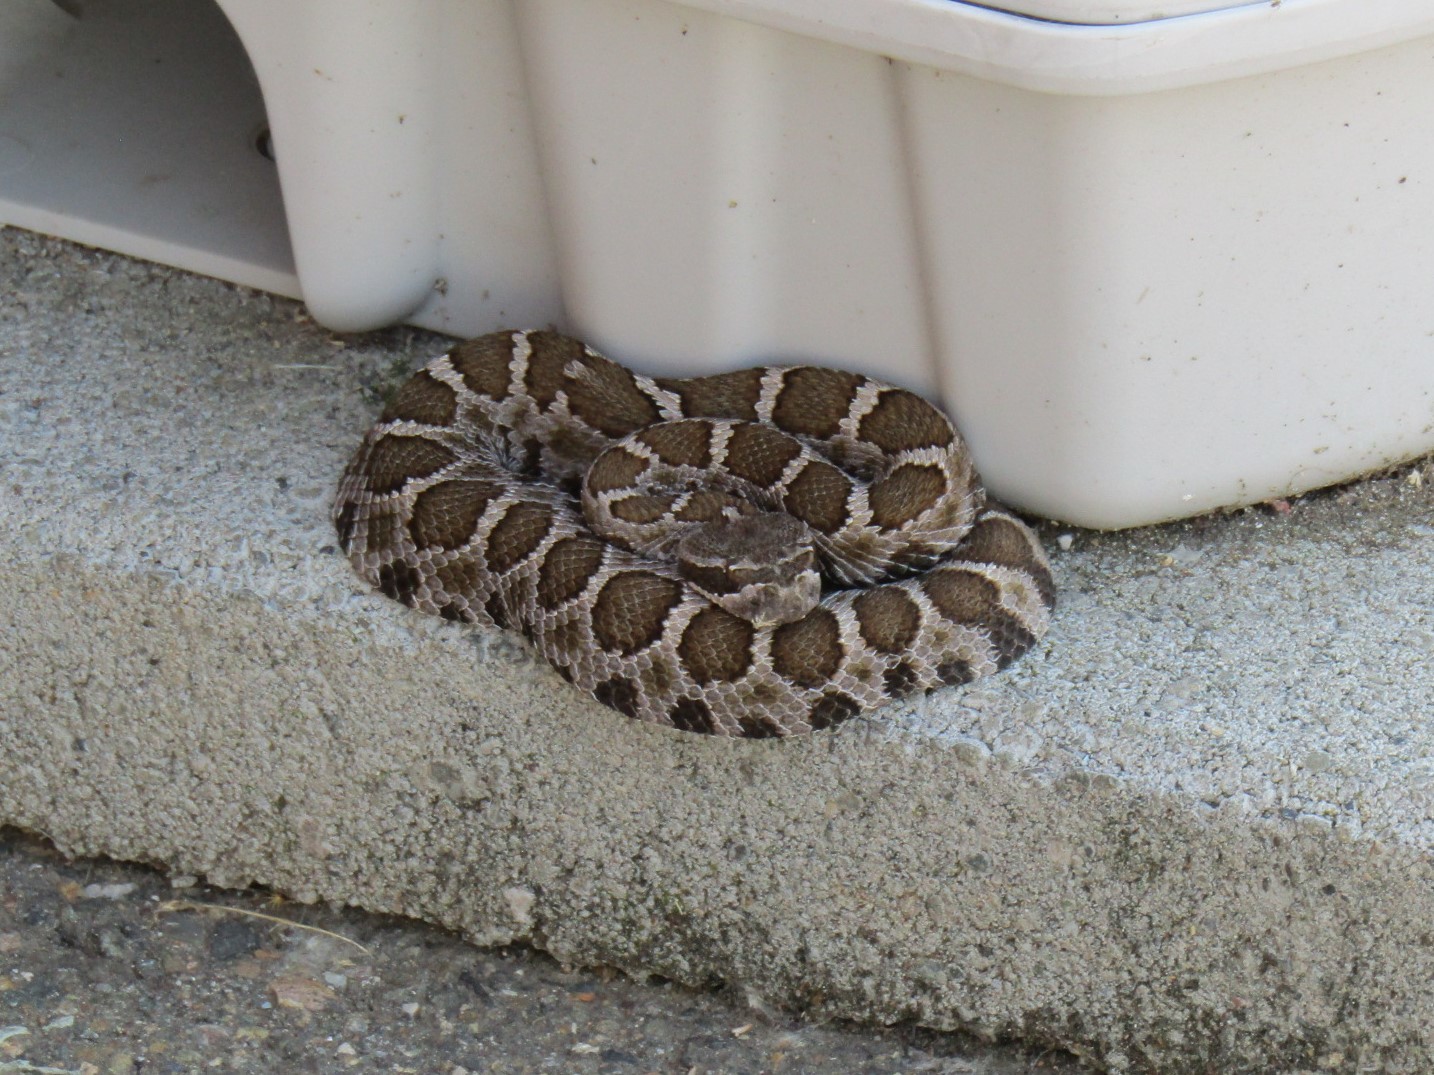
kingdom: Animalia
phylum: Chordata
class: Squamata
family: Viperidae
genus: Crotalus
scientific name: Crotalus oreganus
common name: Abyssus
